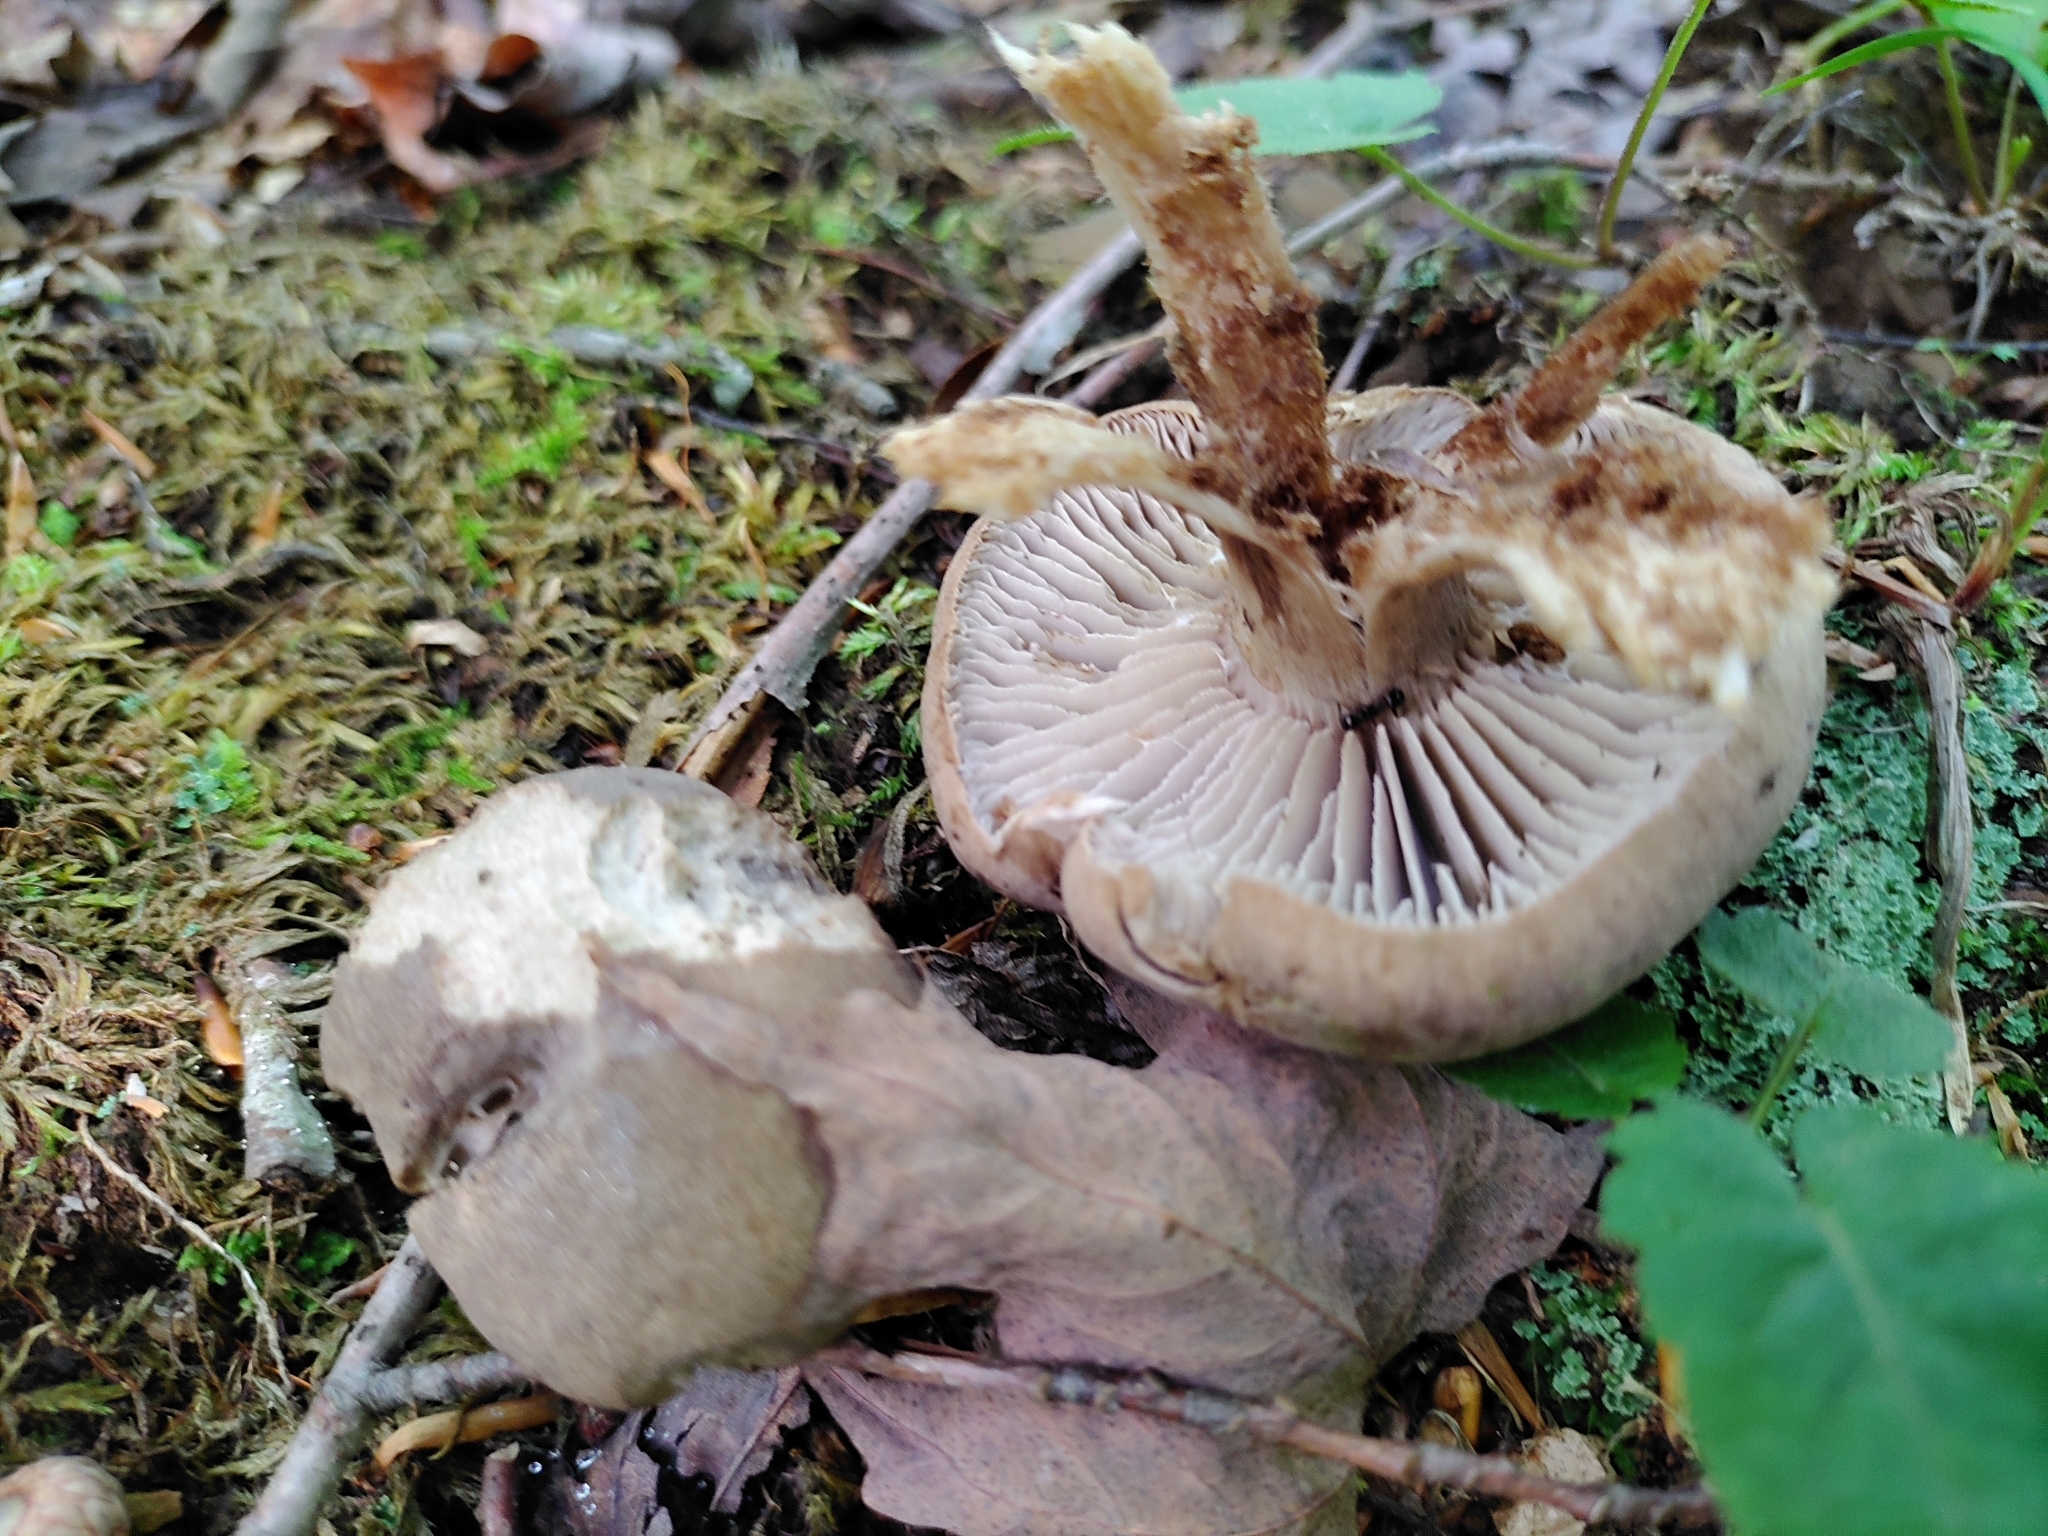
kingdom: Fungi
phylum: Basidiomycota
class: Agaricomycetes
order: Agaricales
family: Tricholomataceae
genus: Pseudotricholoma
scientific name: Pseudotricholoma umbrosum
